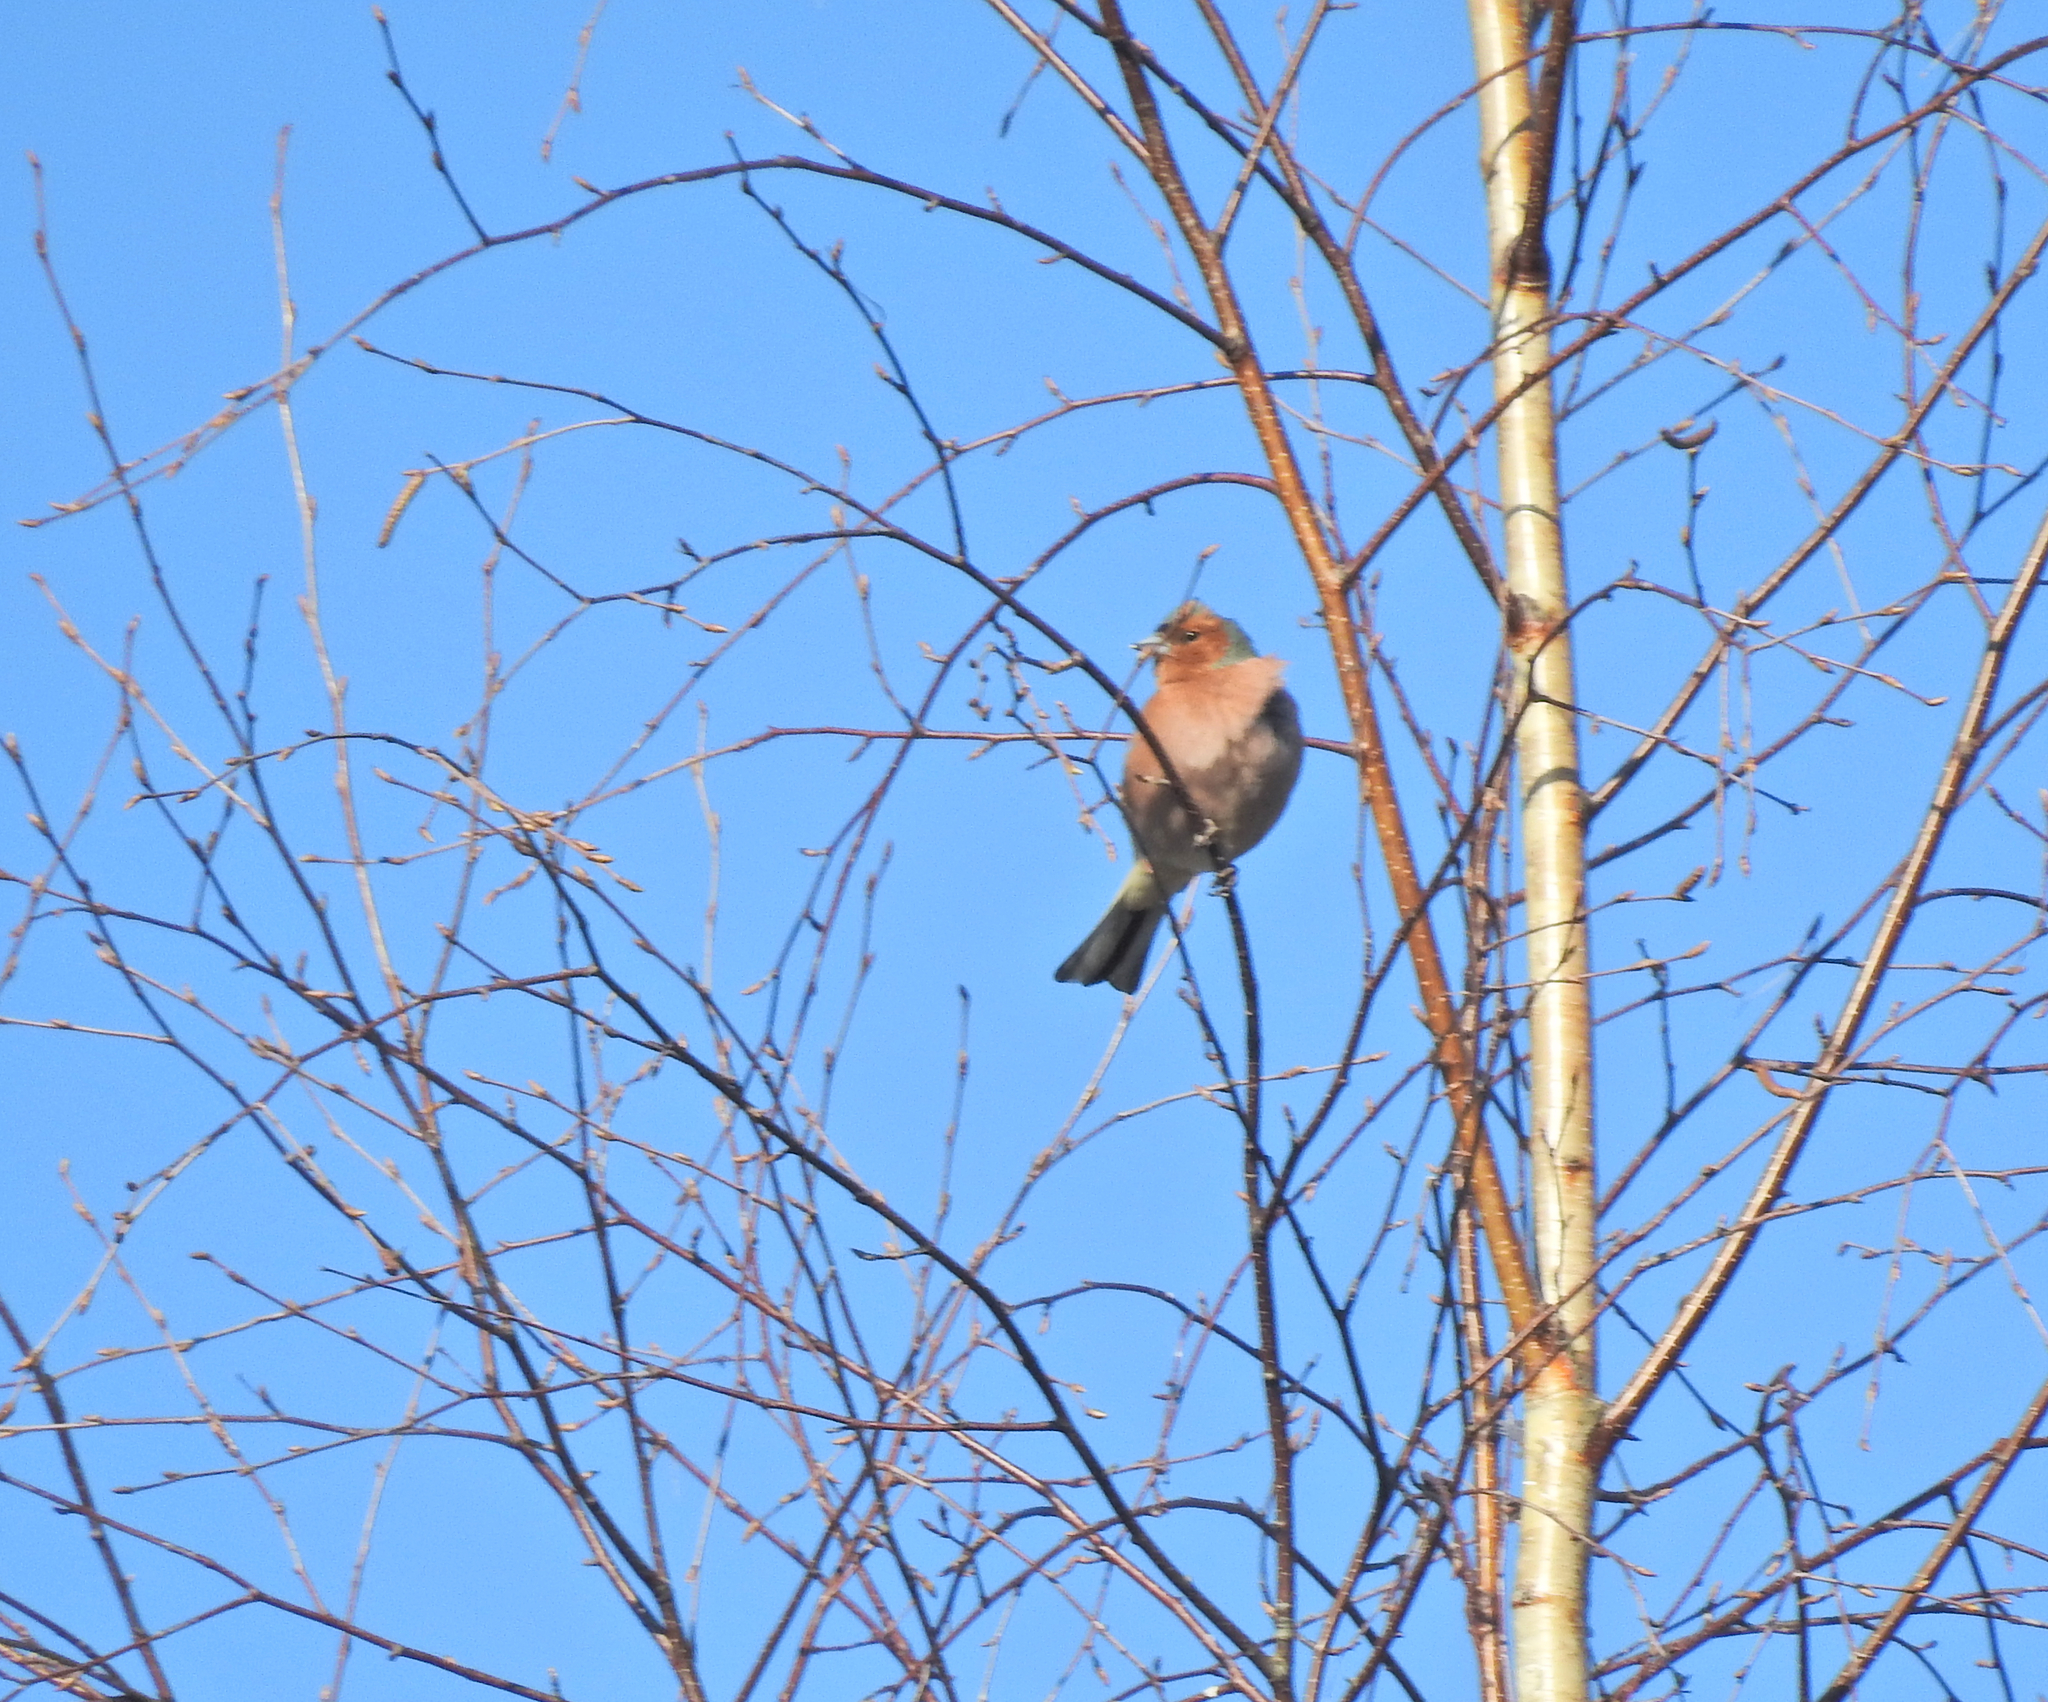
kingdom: Animalia
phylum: Chordata
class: Aves
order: Passeriformes
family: Fringillidae
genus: Fringilla
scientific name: Fringilla coelebs
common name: Common chaffinch
